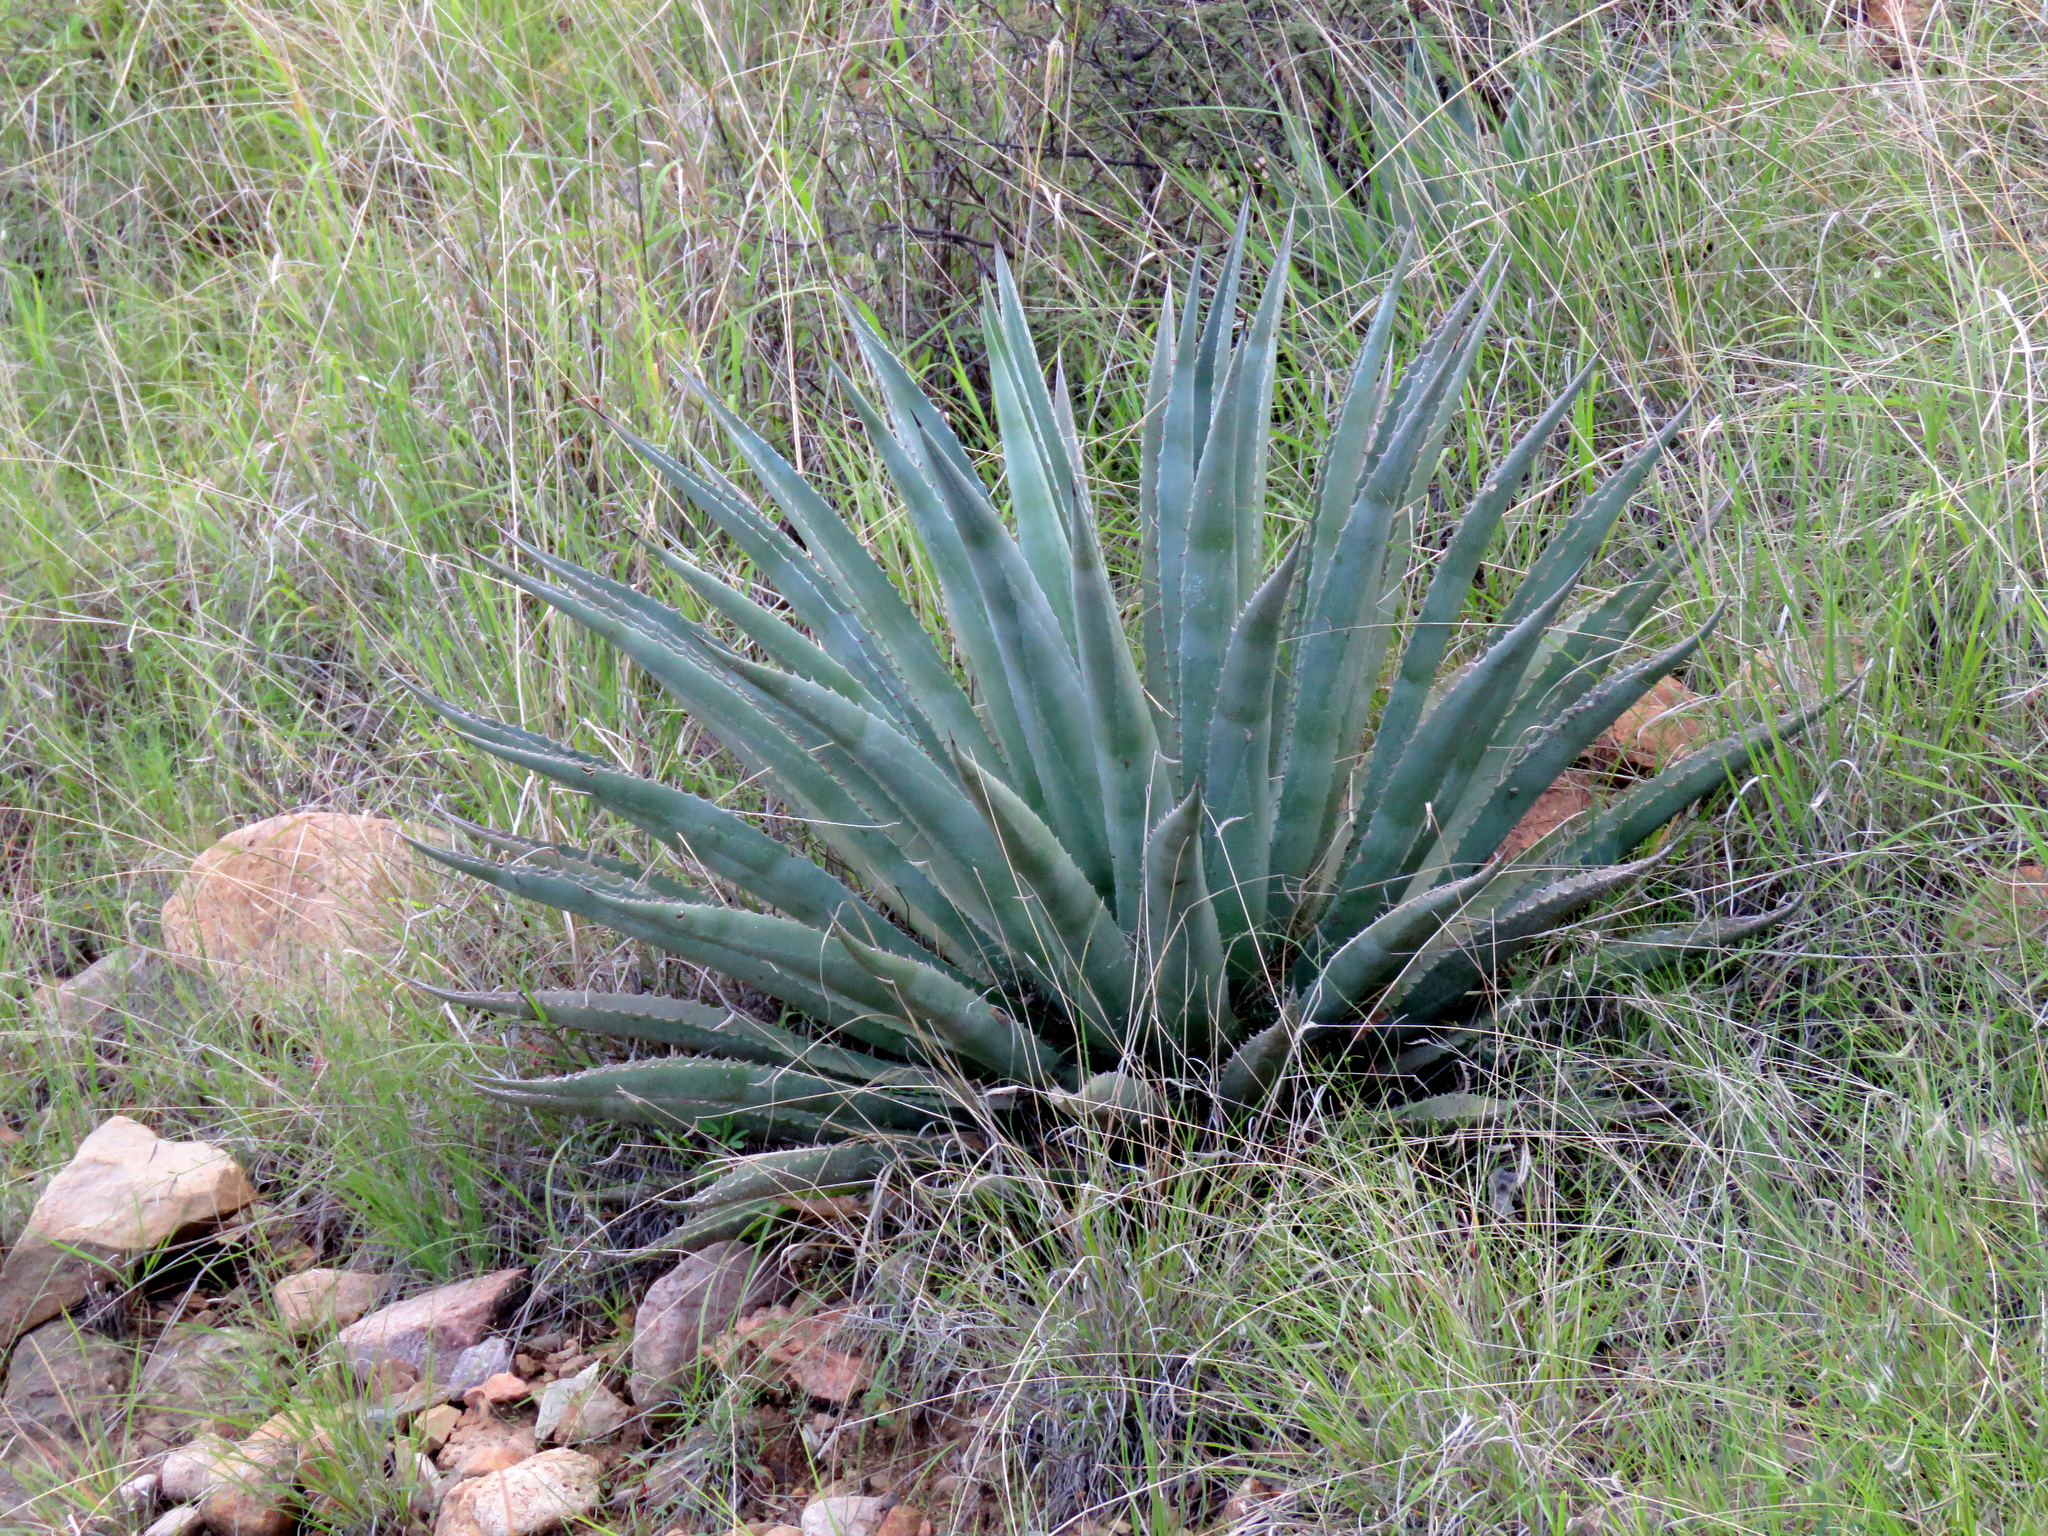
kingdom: Plantae
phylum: Tracheophyta
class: Liliopsida
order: Asparagales
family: Asparagaceae
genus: Agave
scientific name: Agave palmeri
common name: Palmer agave
